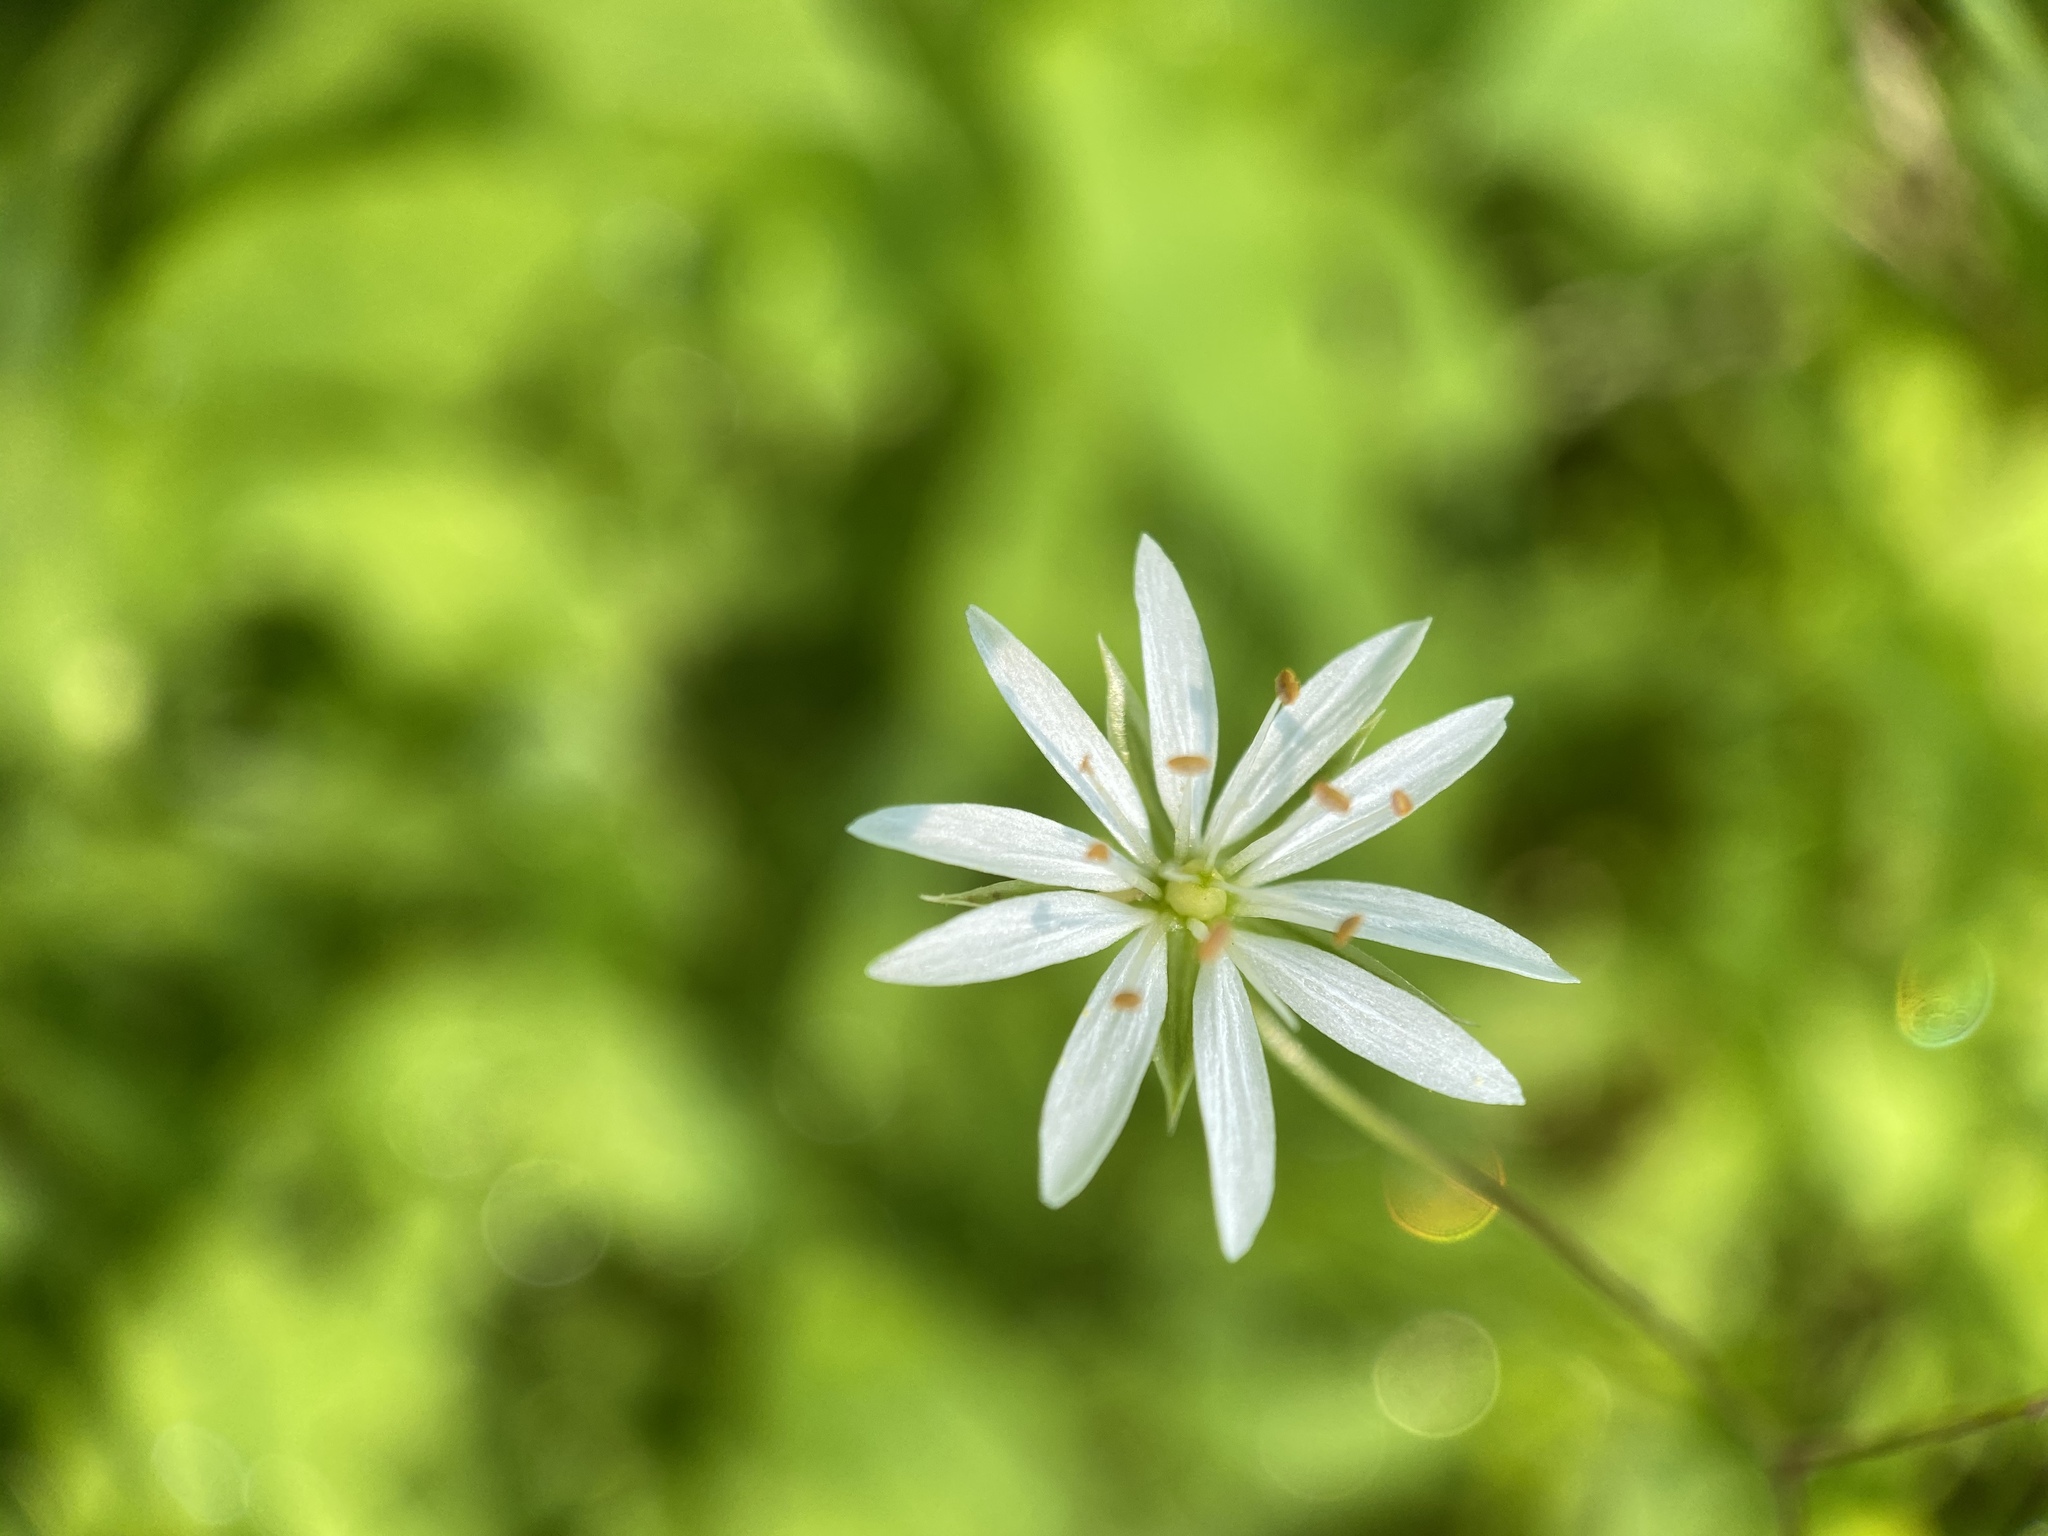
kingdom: Plantae
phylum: Tracheophyta
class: Magnoliopsida
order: Caryophyllales
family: Caryophyllaceae
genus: Stellaria
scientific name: Stellaria graminea
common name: Grass-like starwort
